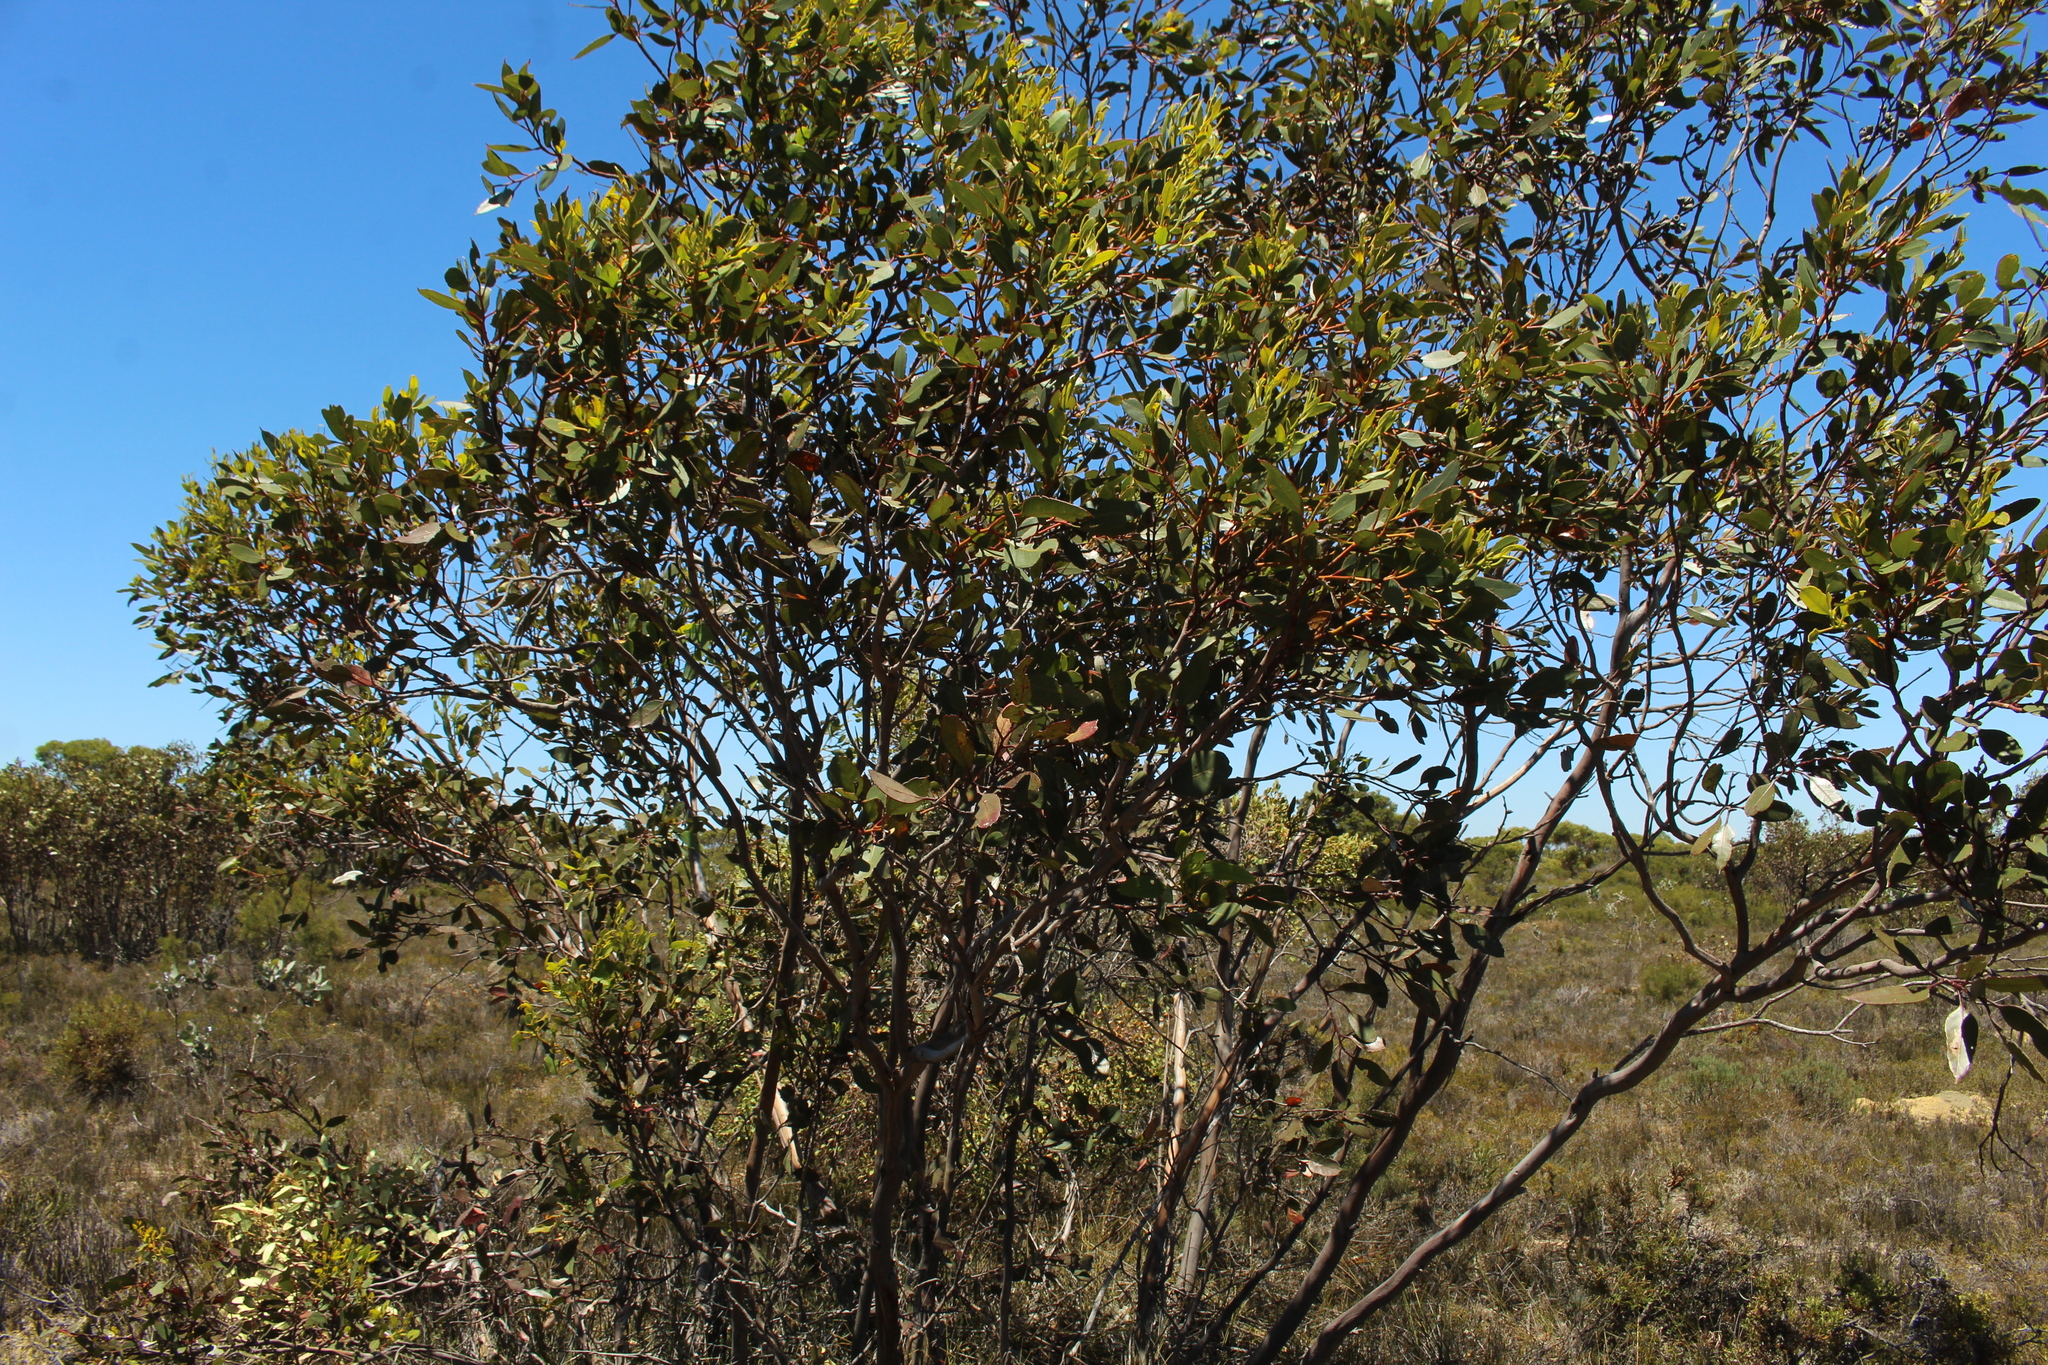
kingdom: Plantae
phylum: Tracheophyta
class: Magnoliopsida
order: Myrtales
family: Myrtaceae
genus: Eucalyptus
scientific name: Eucalyptus angulosa
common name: Ridge-fruited mallee
